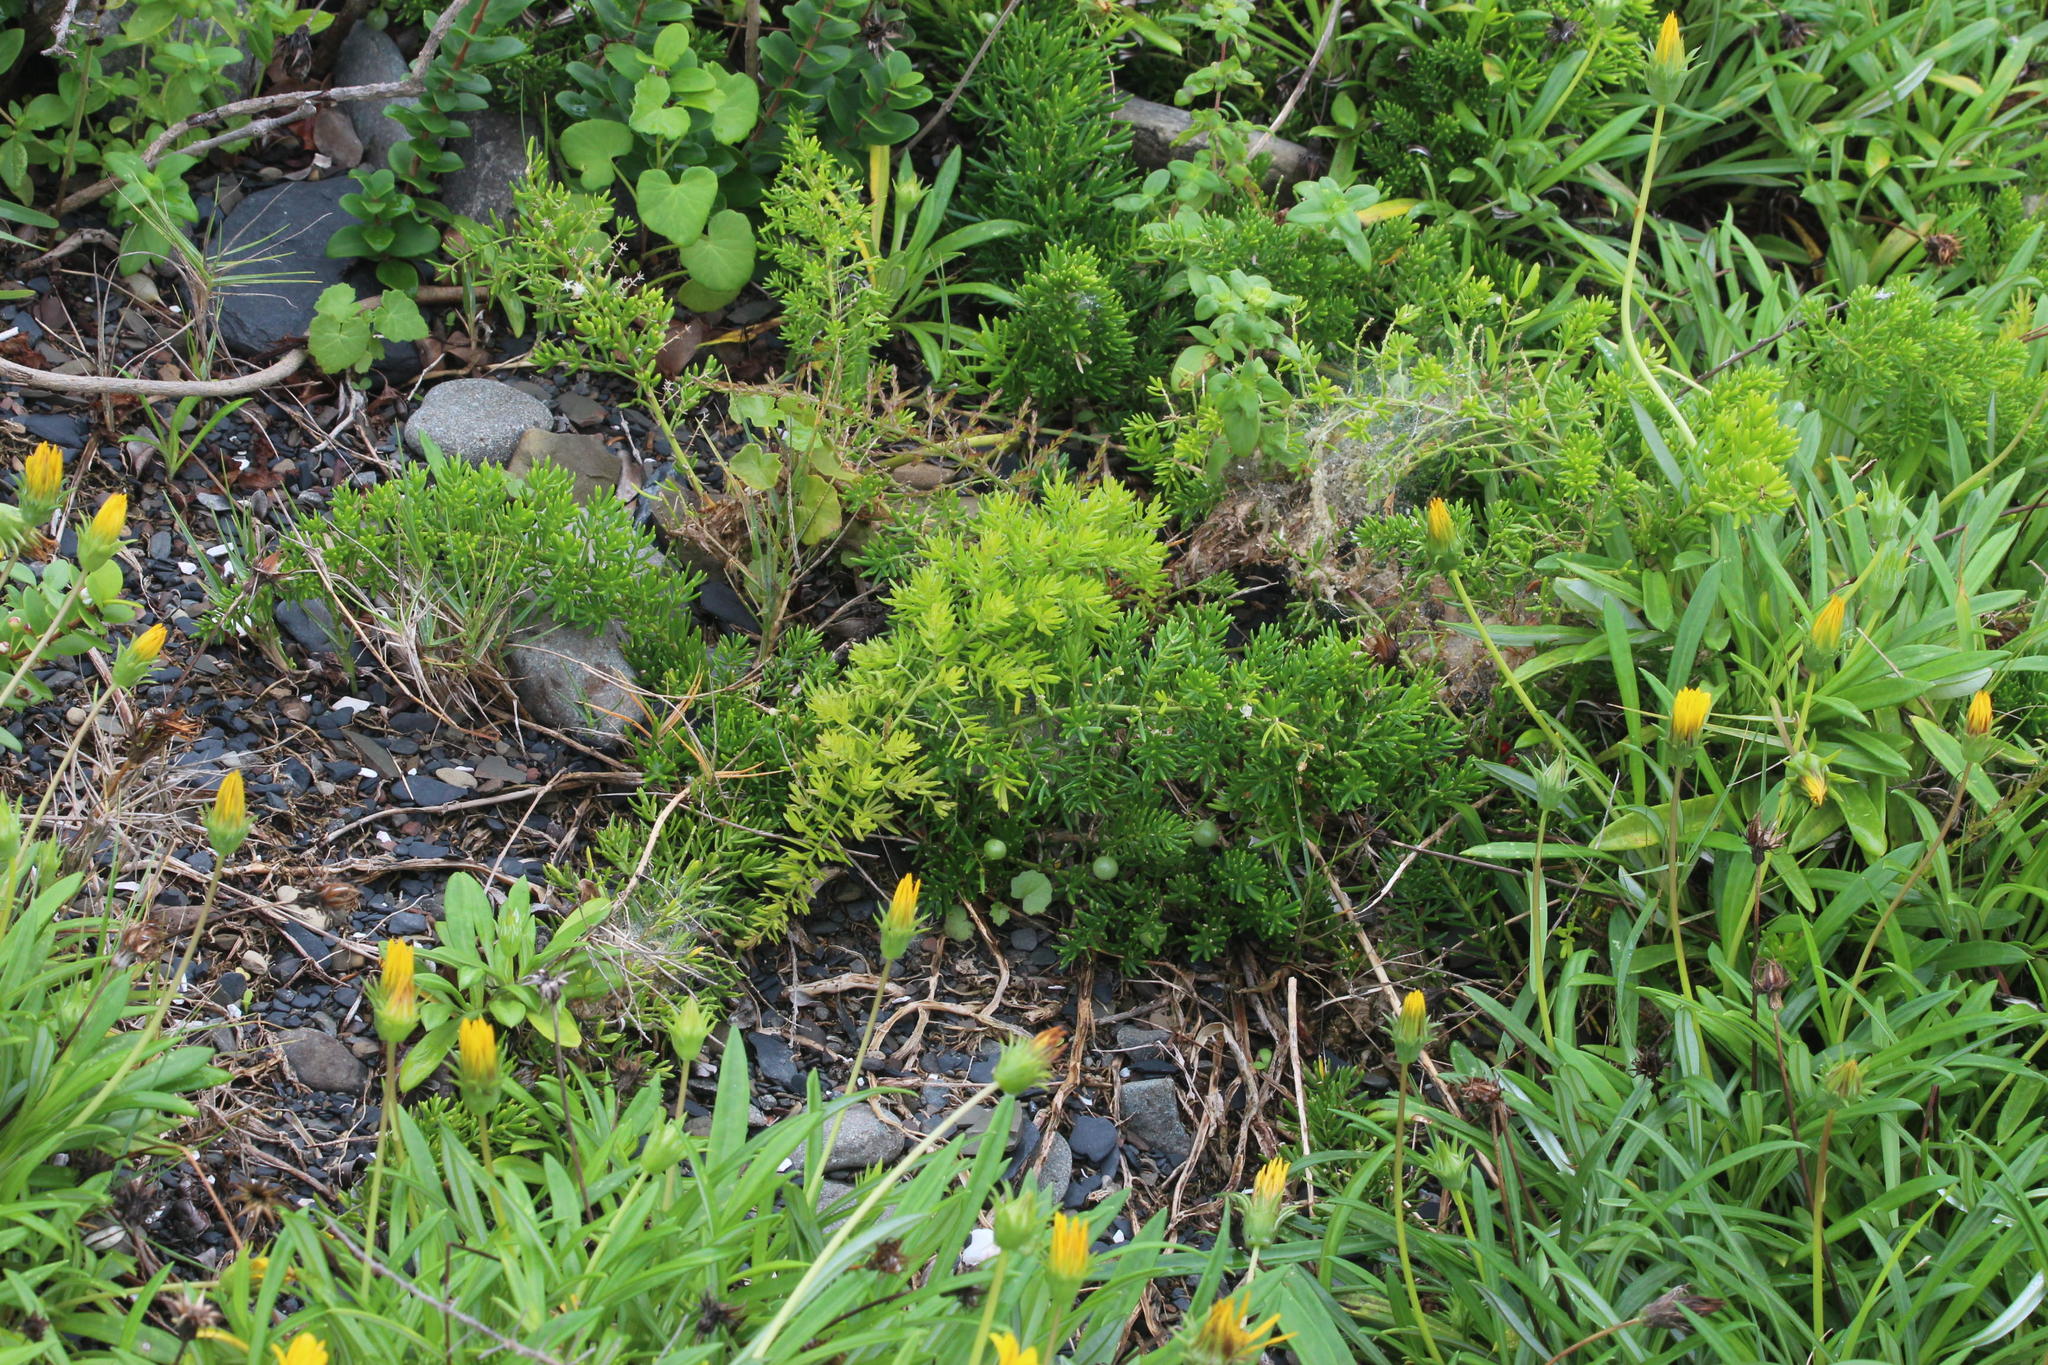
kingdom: Plantae
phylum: Tracheophyta
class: Liliopsida
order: Asparagales
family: Asparagaceae
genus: Asparagus
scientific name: Asparagus densiflorus
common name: Asparagus fern
